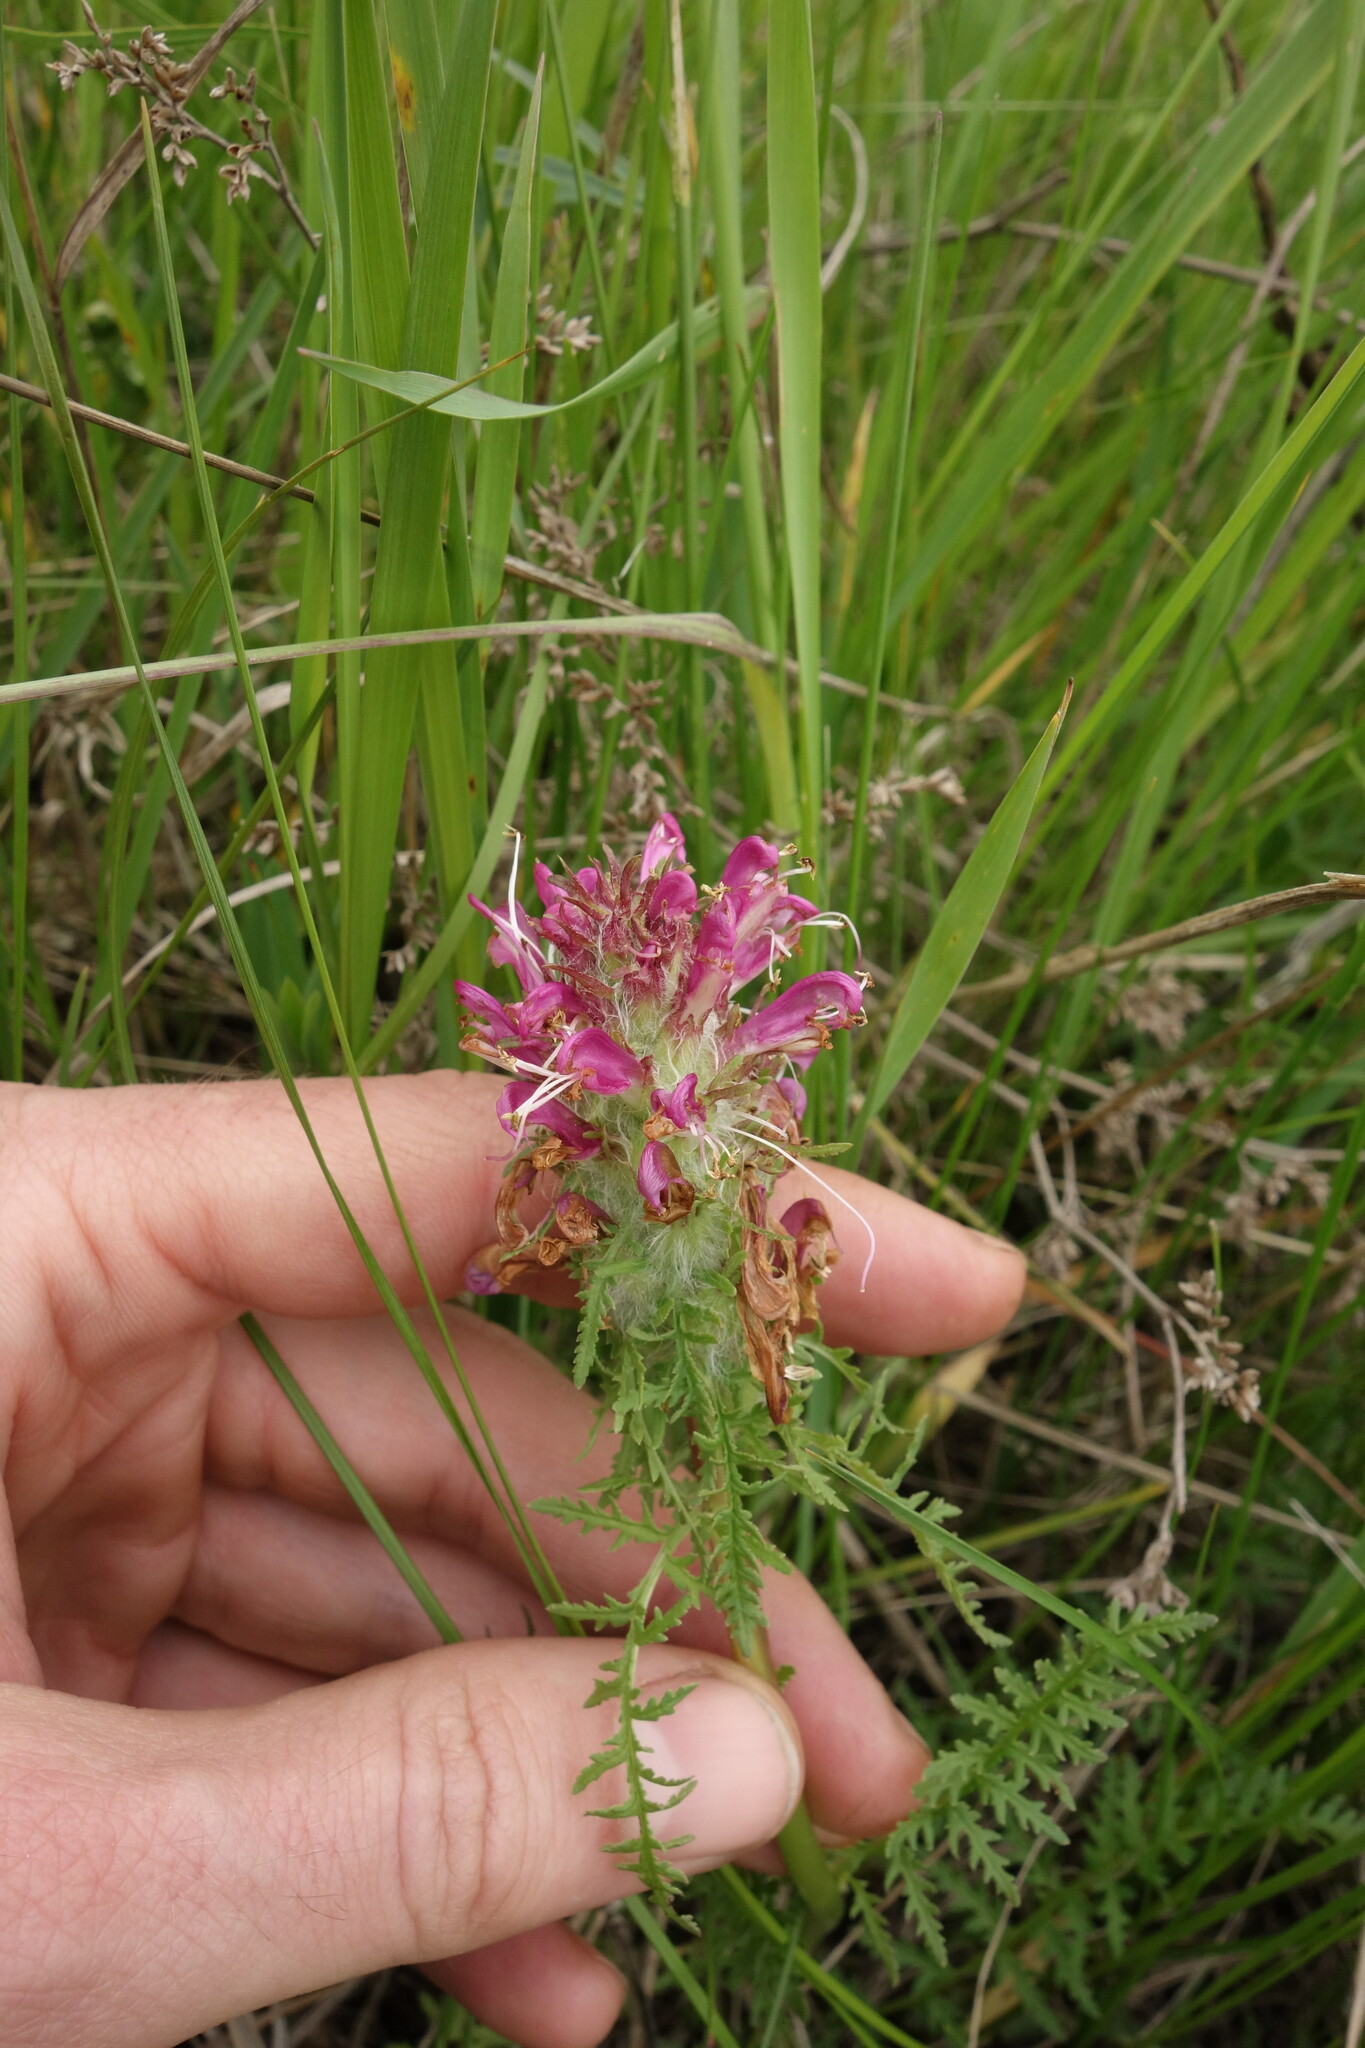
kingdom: Plantae
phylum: Tracheophyta
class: Magnoliopsida
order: Lamiales
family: Orobanchaceae
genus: Pedicularis
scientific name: Pedicularis dasystachys
